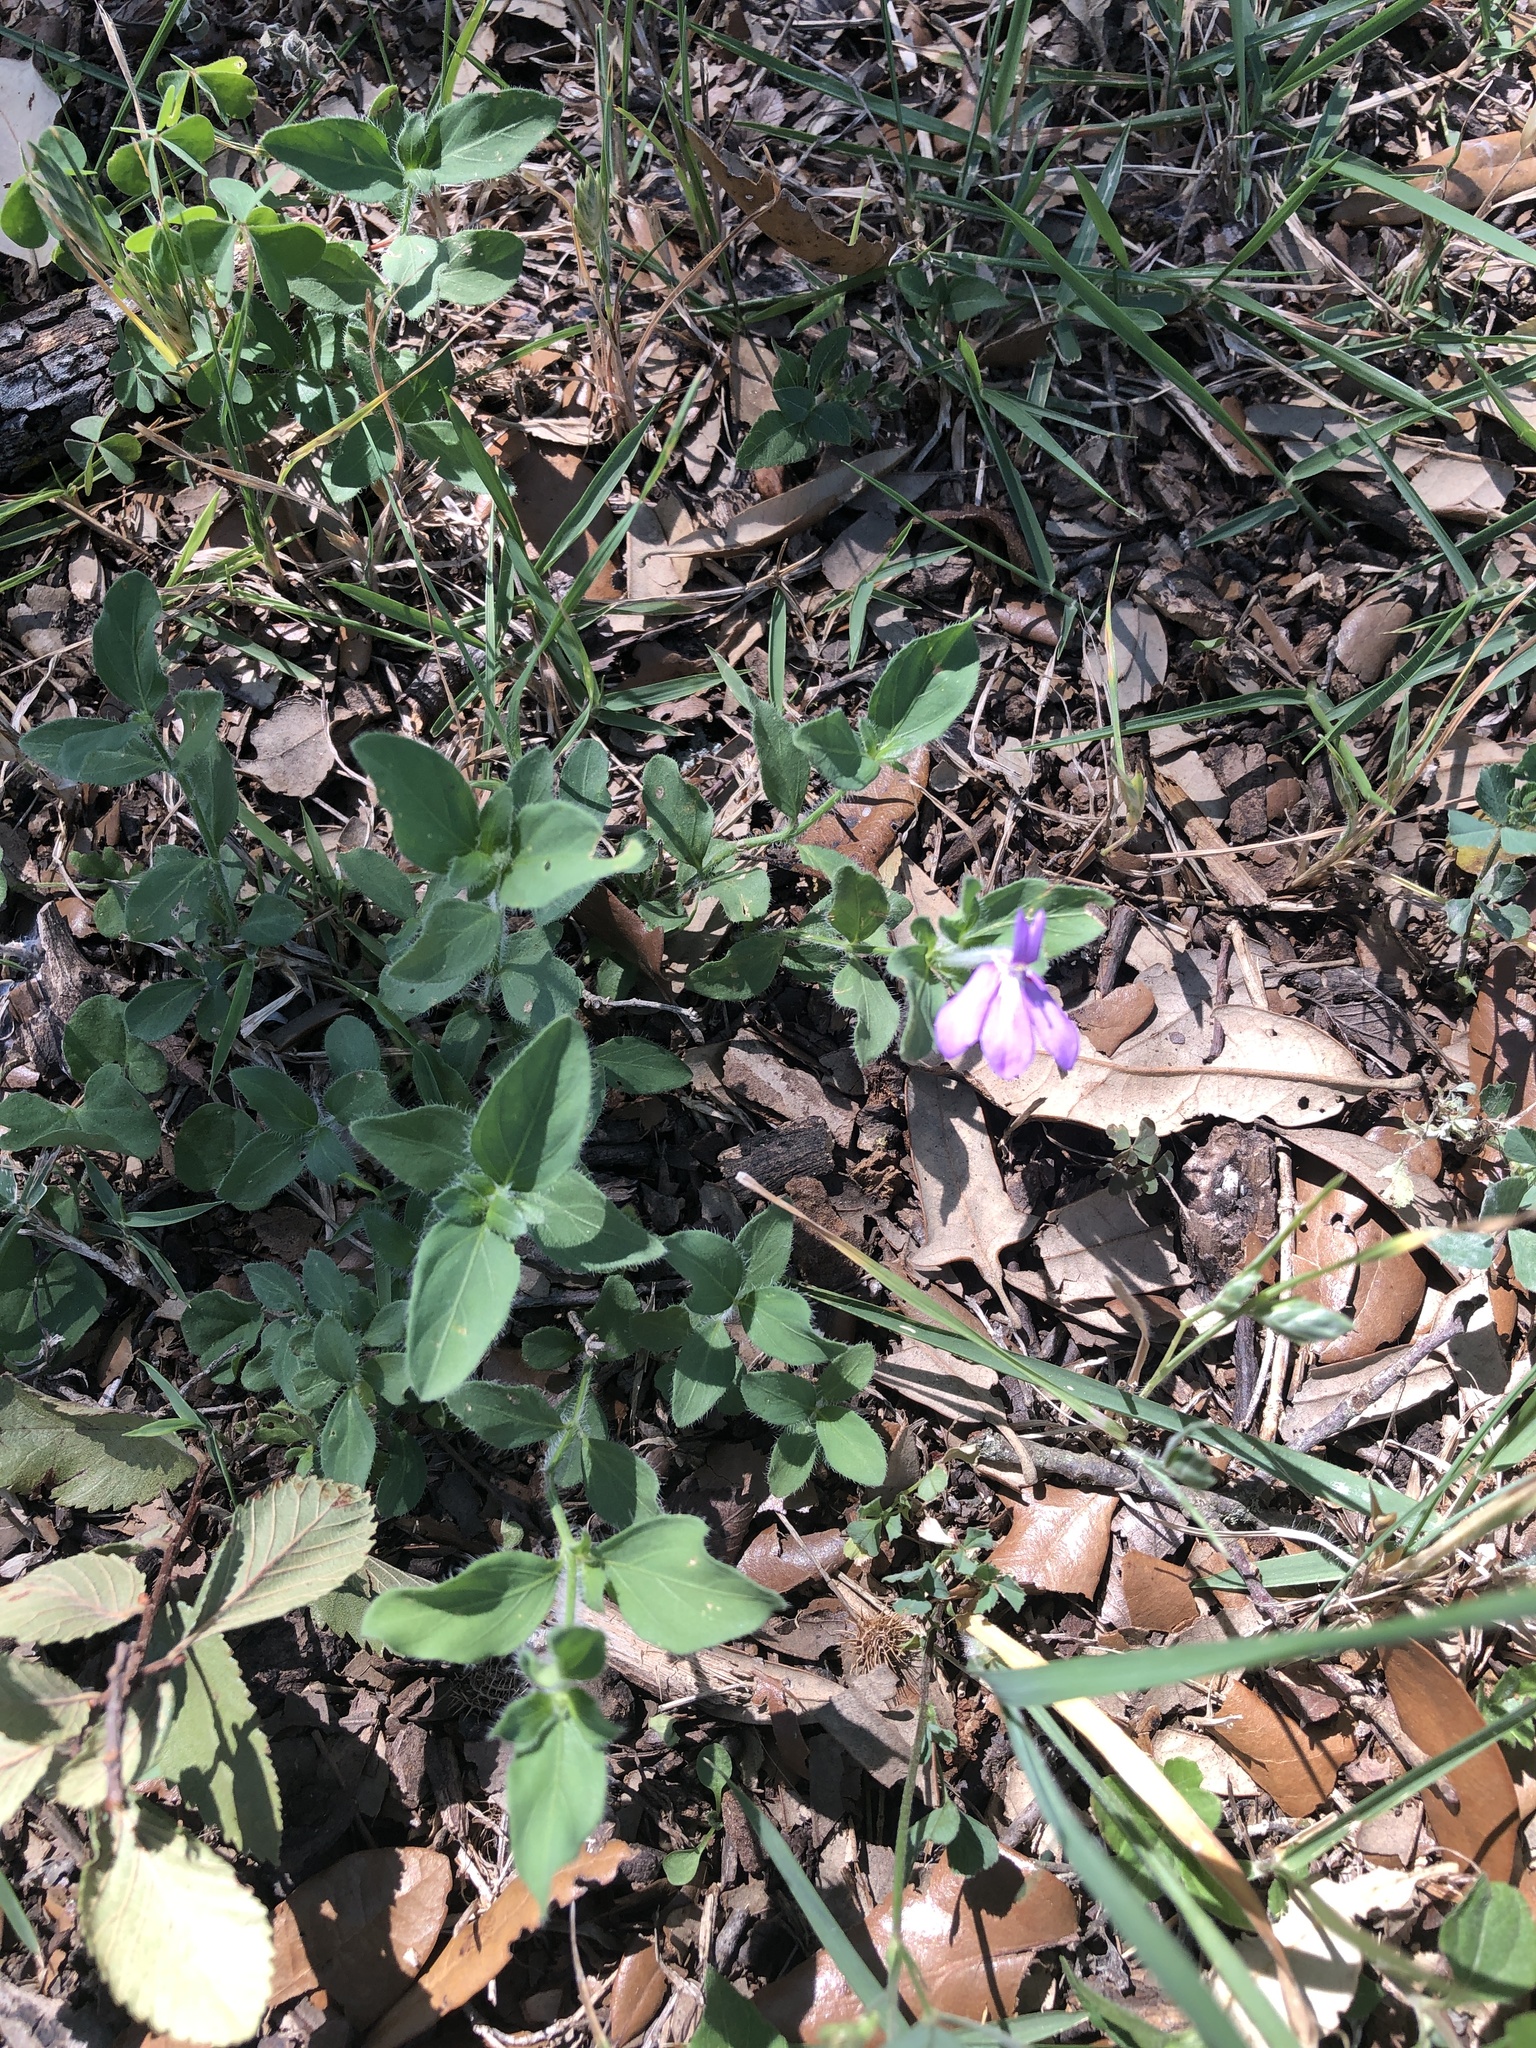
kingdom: Plantae
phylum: Tracheophyta
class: Magnoliopsida
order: Lamiales
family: Acanthaceae
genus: Justicia
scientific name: Justicia pilosella
